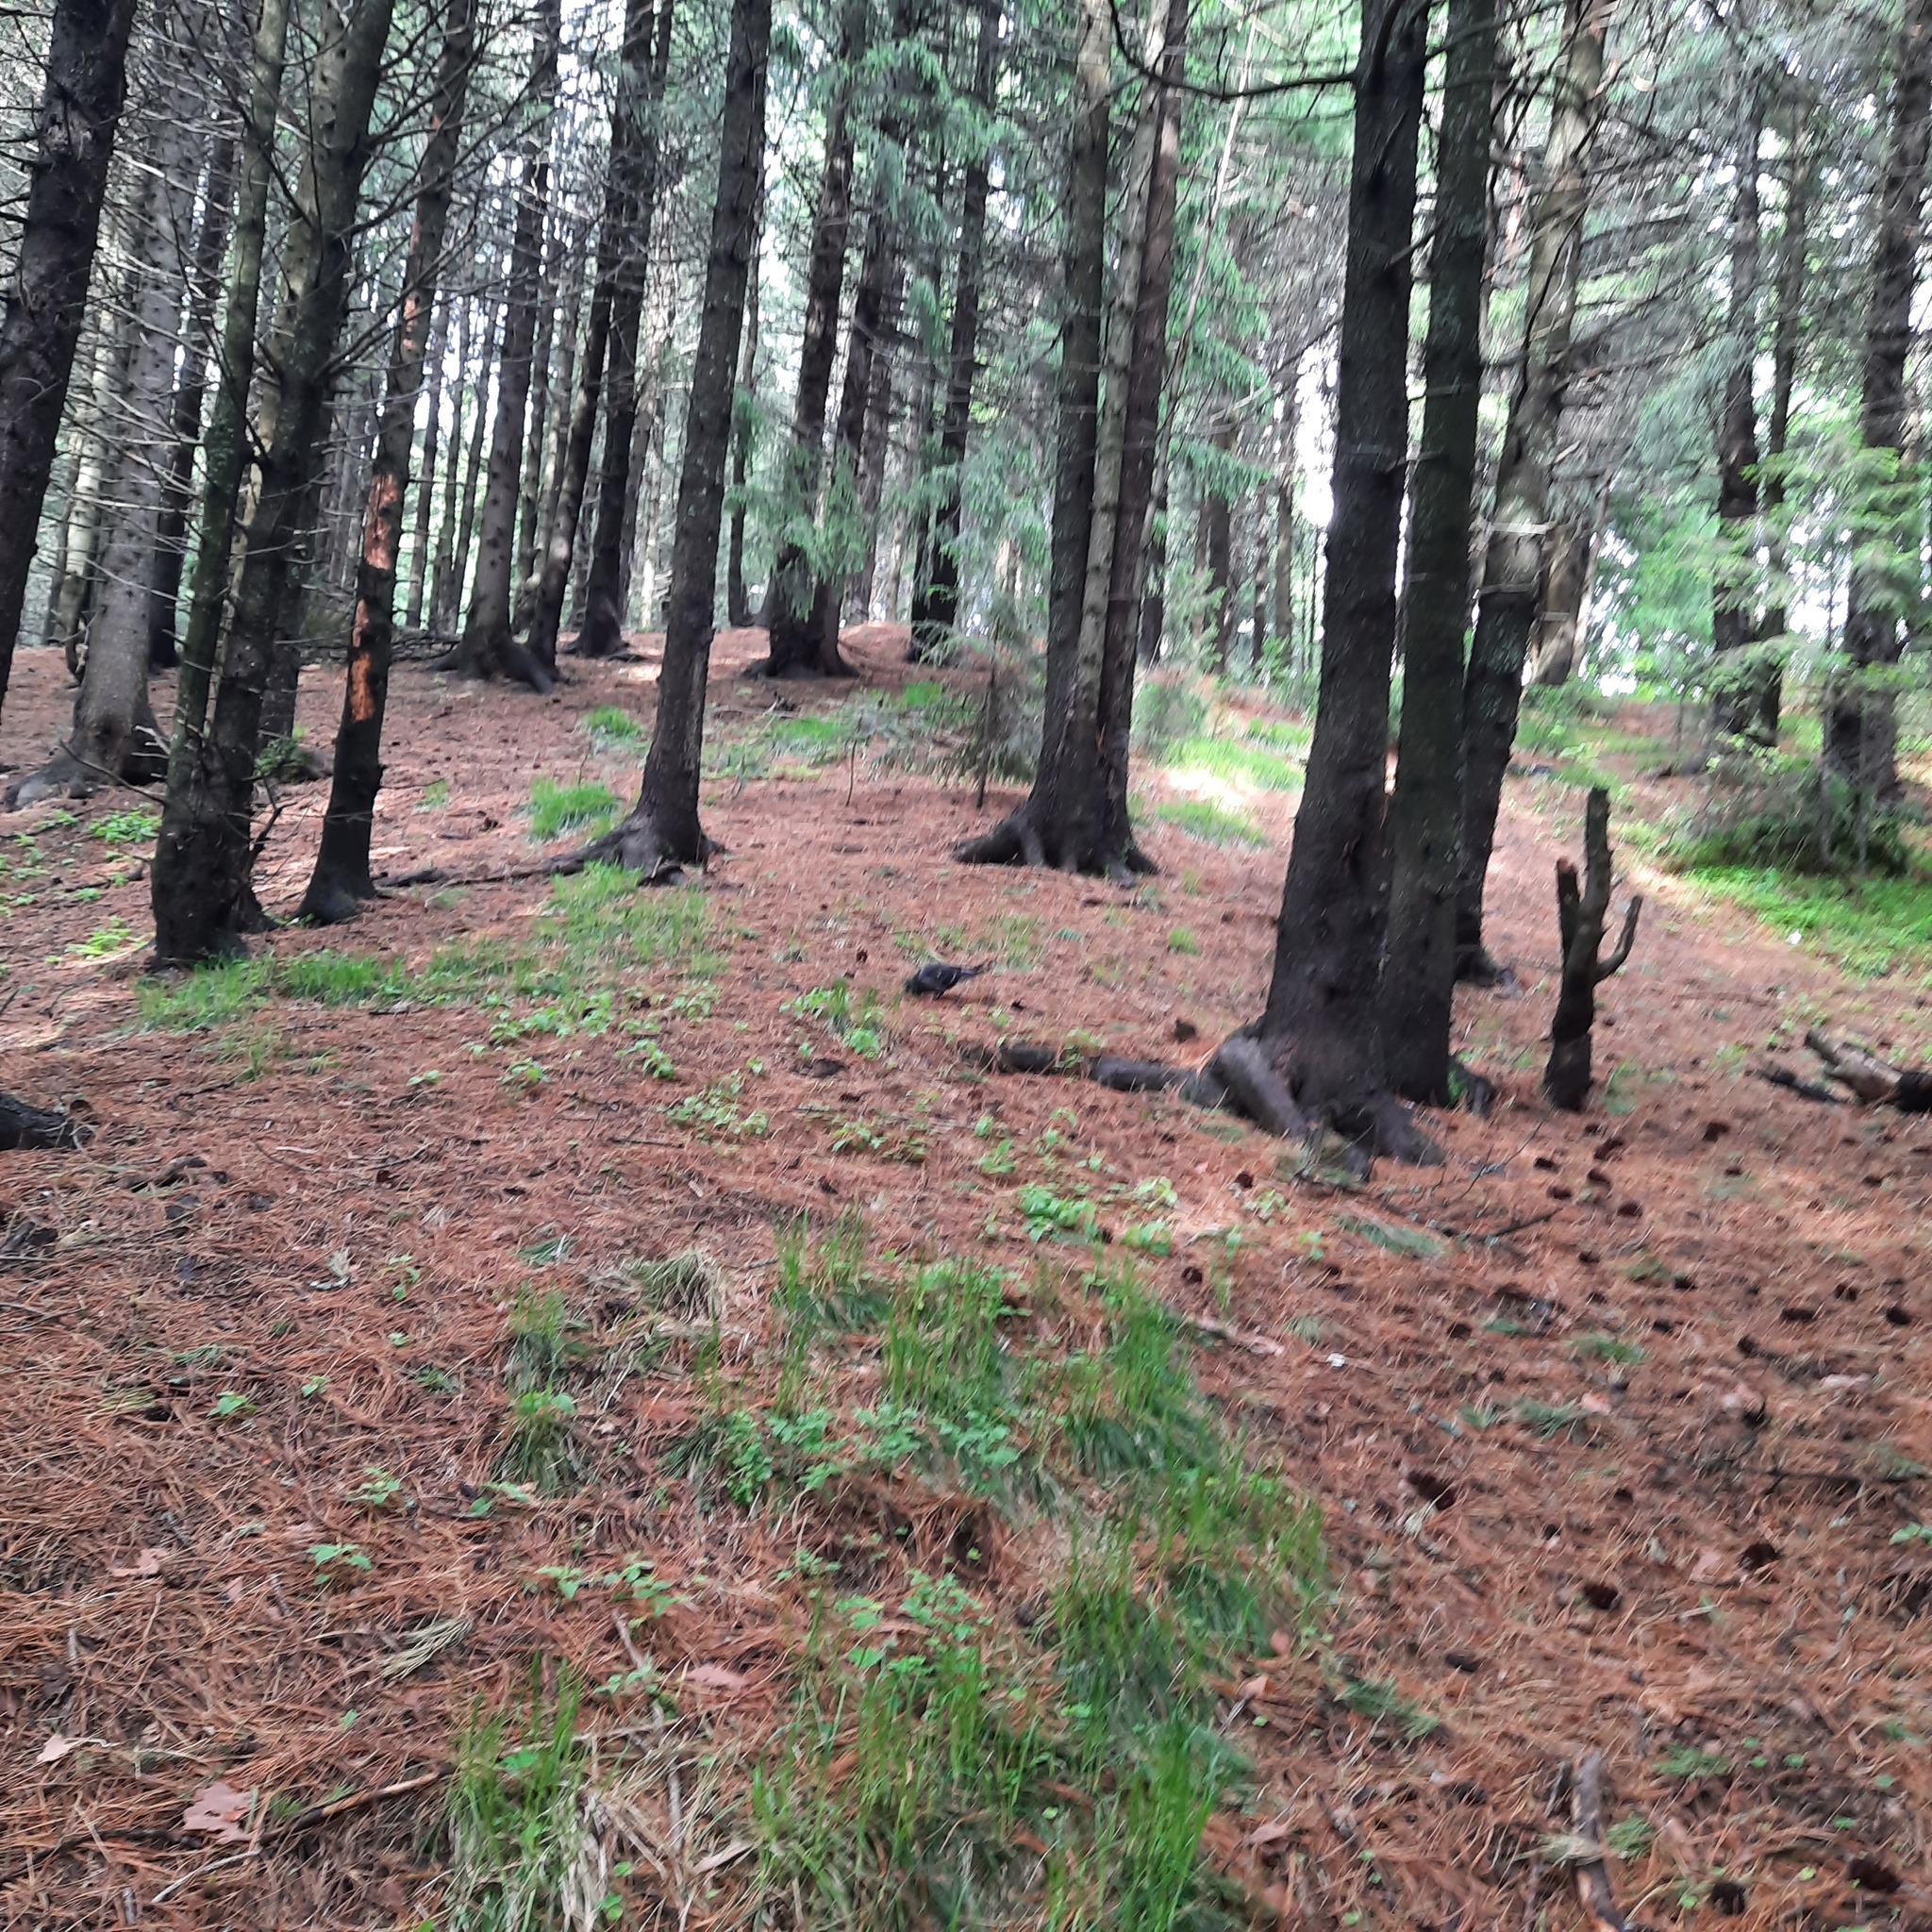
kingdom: Animalia
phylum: Chordata
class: Aves
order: Columbiformes
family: Columbidae
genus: Streptopelia
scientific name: Streptopelia orientalis
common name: Oriental turtle dove
